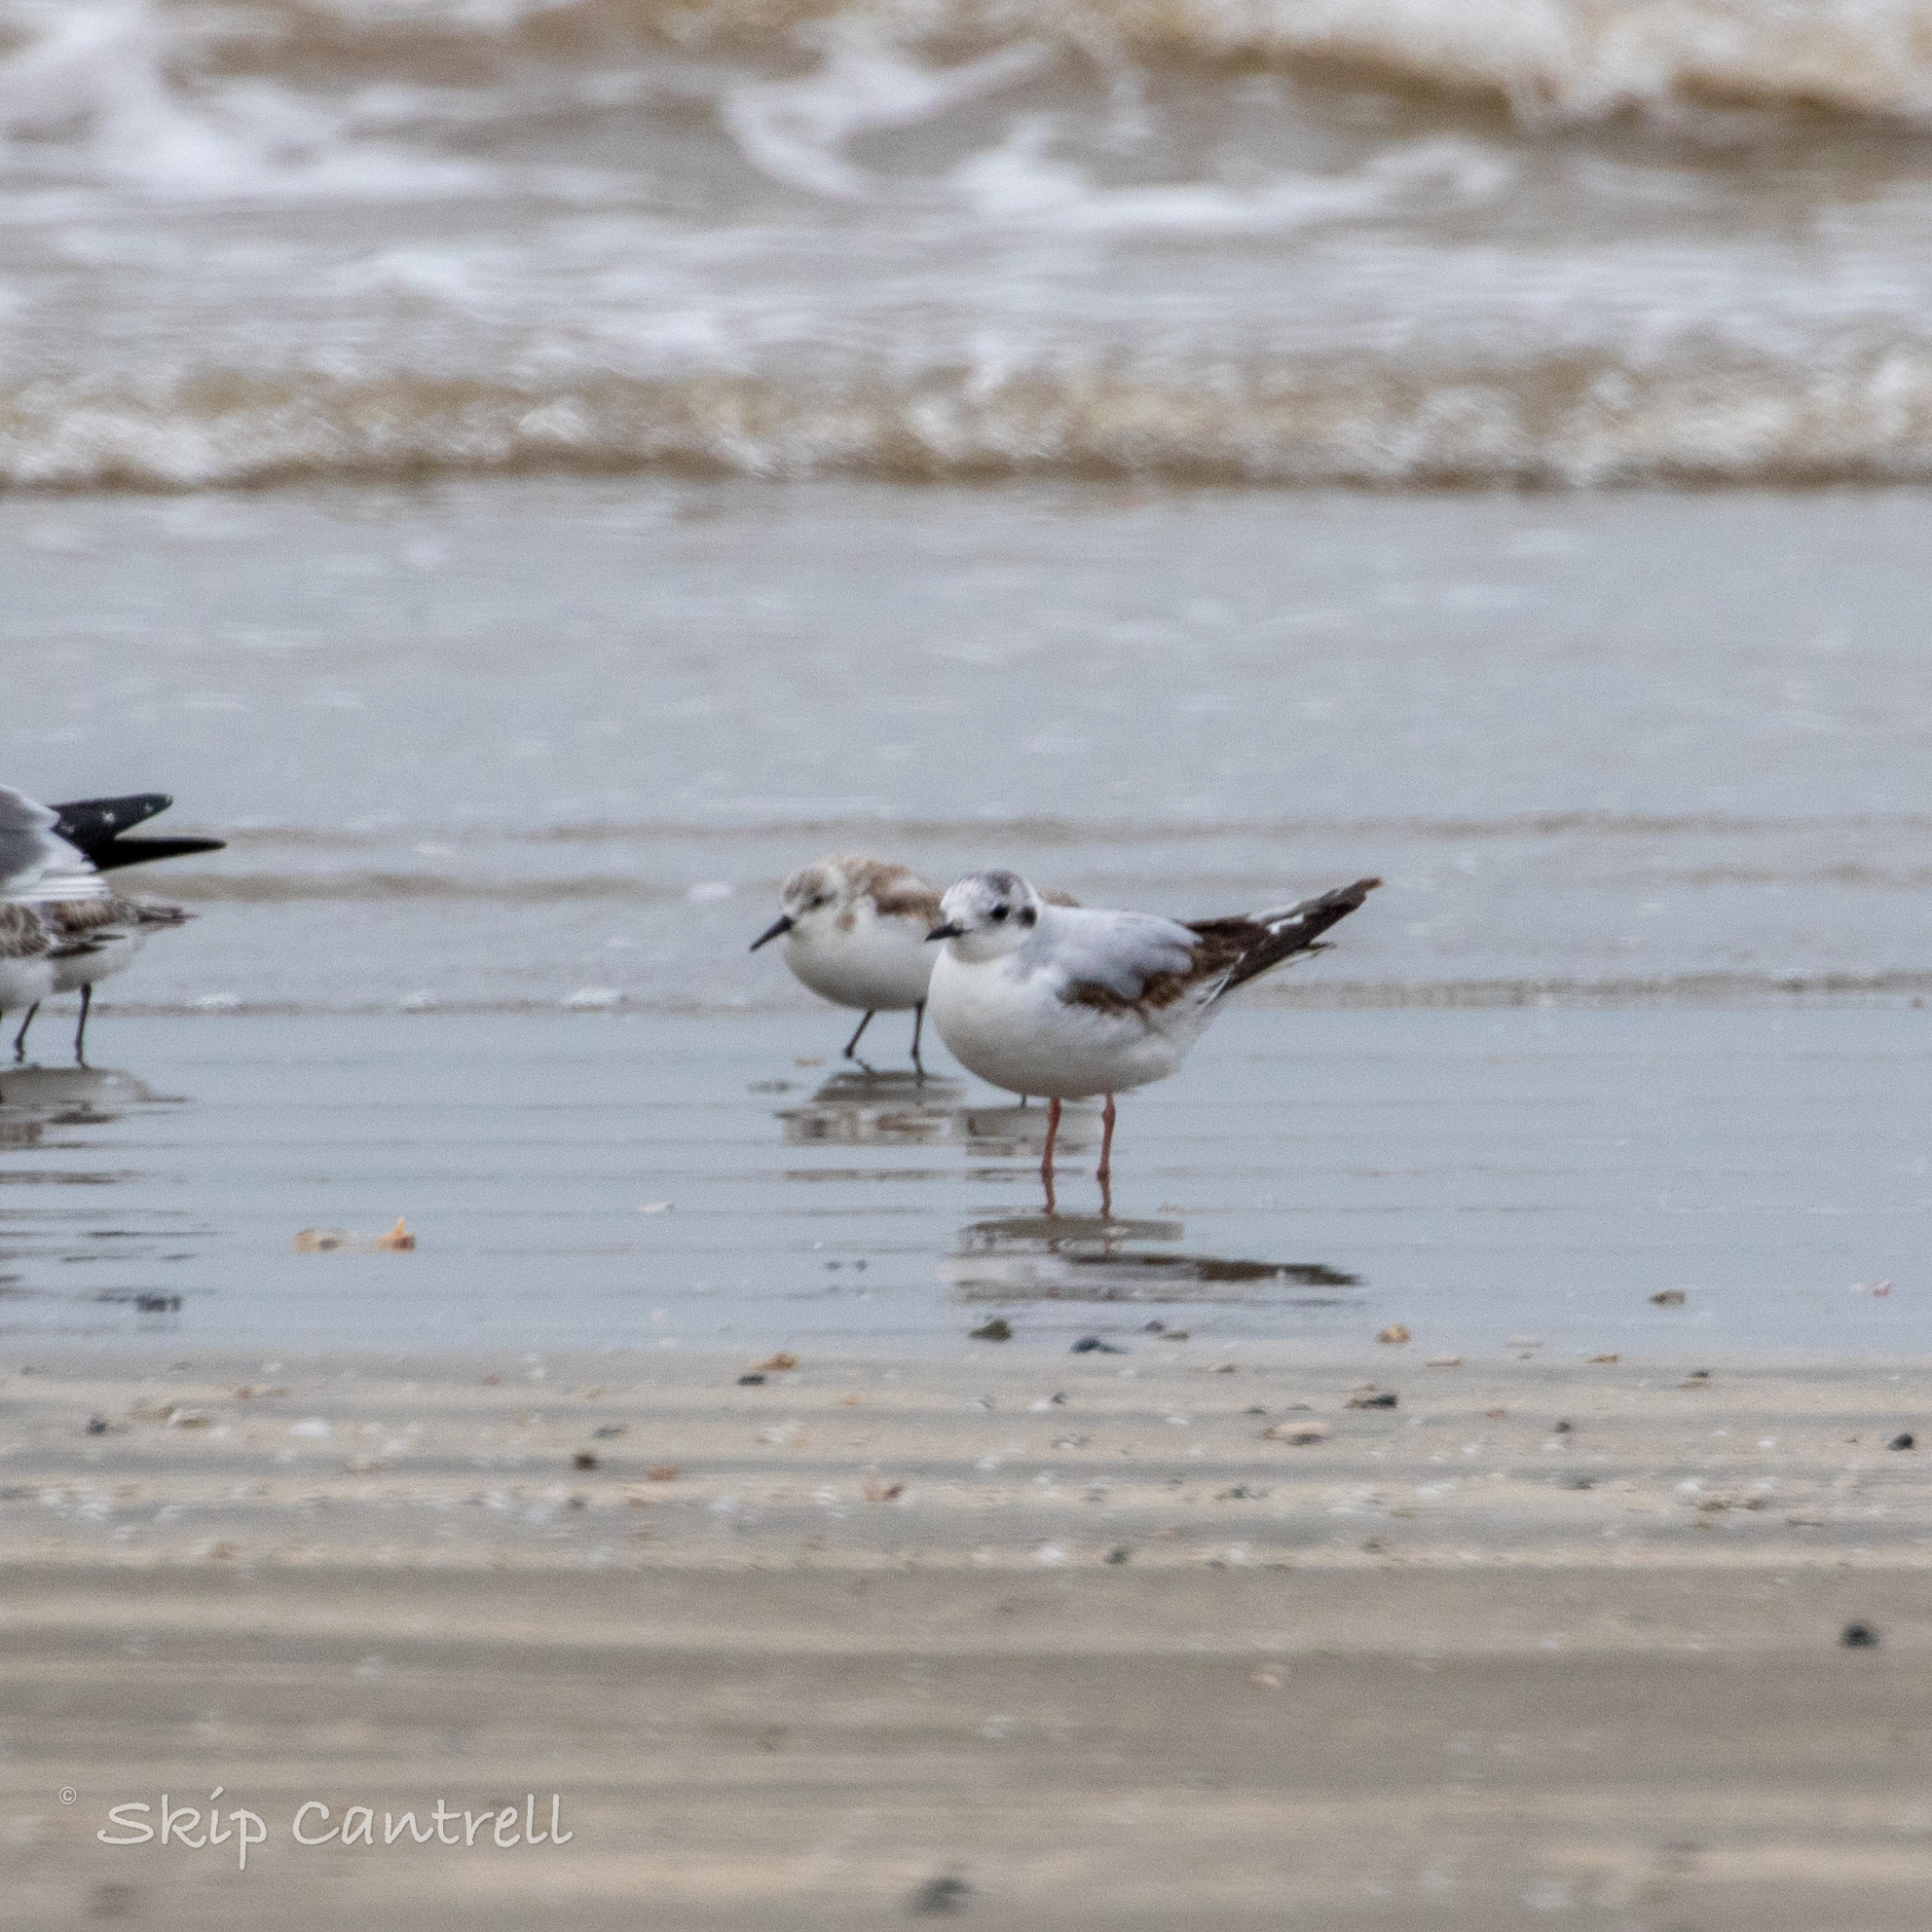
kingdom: Animalia
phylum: Chordata
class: Aves
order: Charadriiformes
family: Laridae
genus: Hydrocoloeus
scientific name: Hydrocoloeus minutus
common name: Little gull
